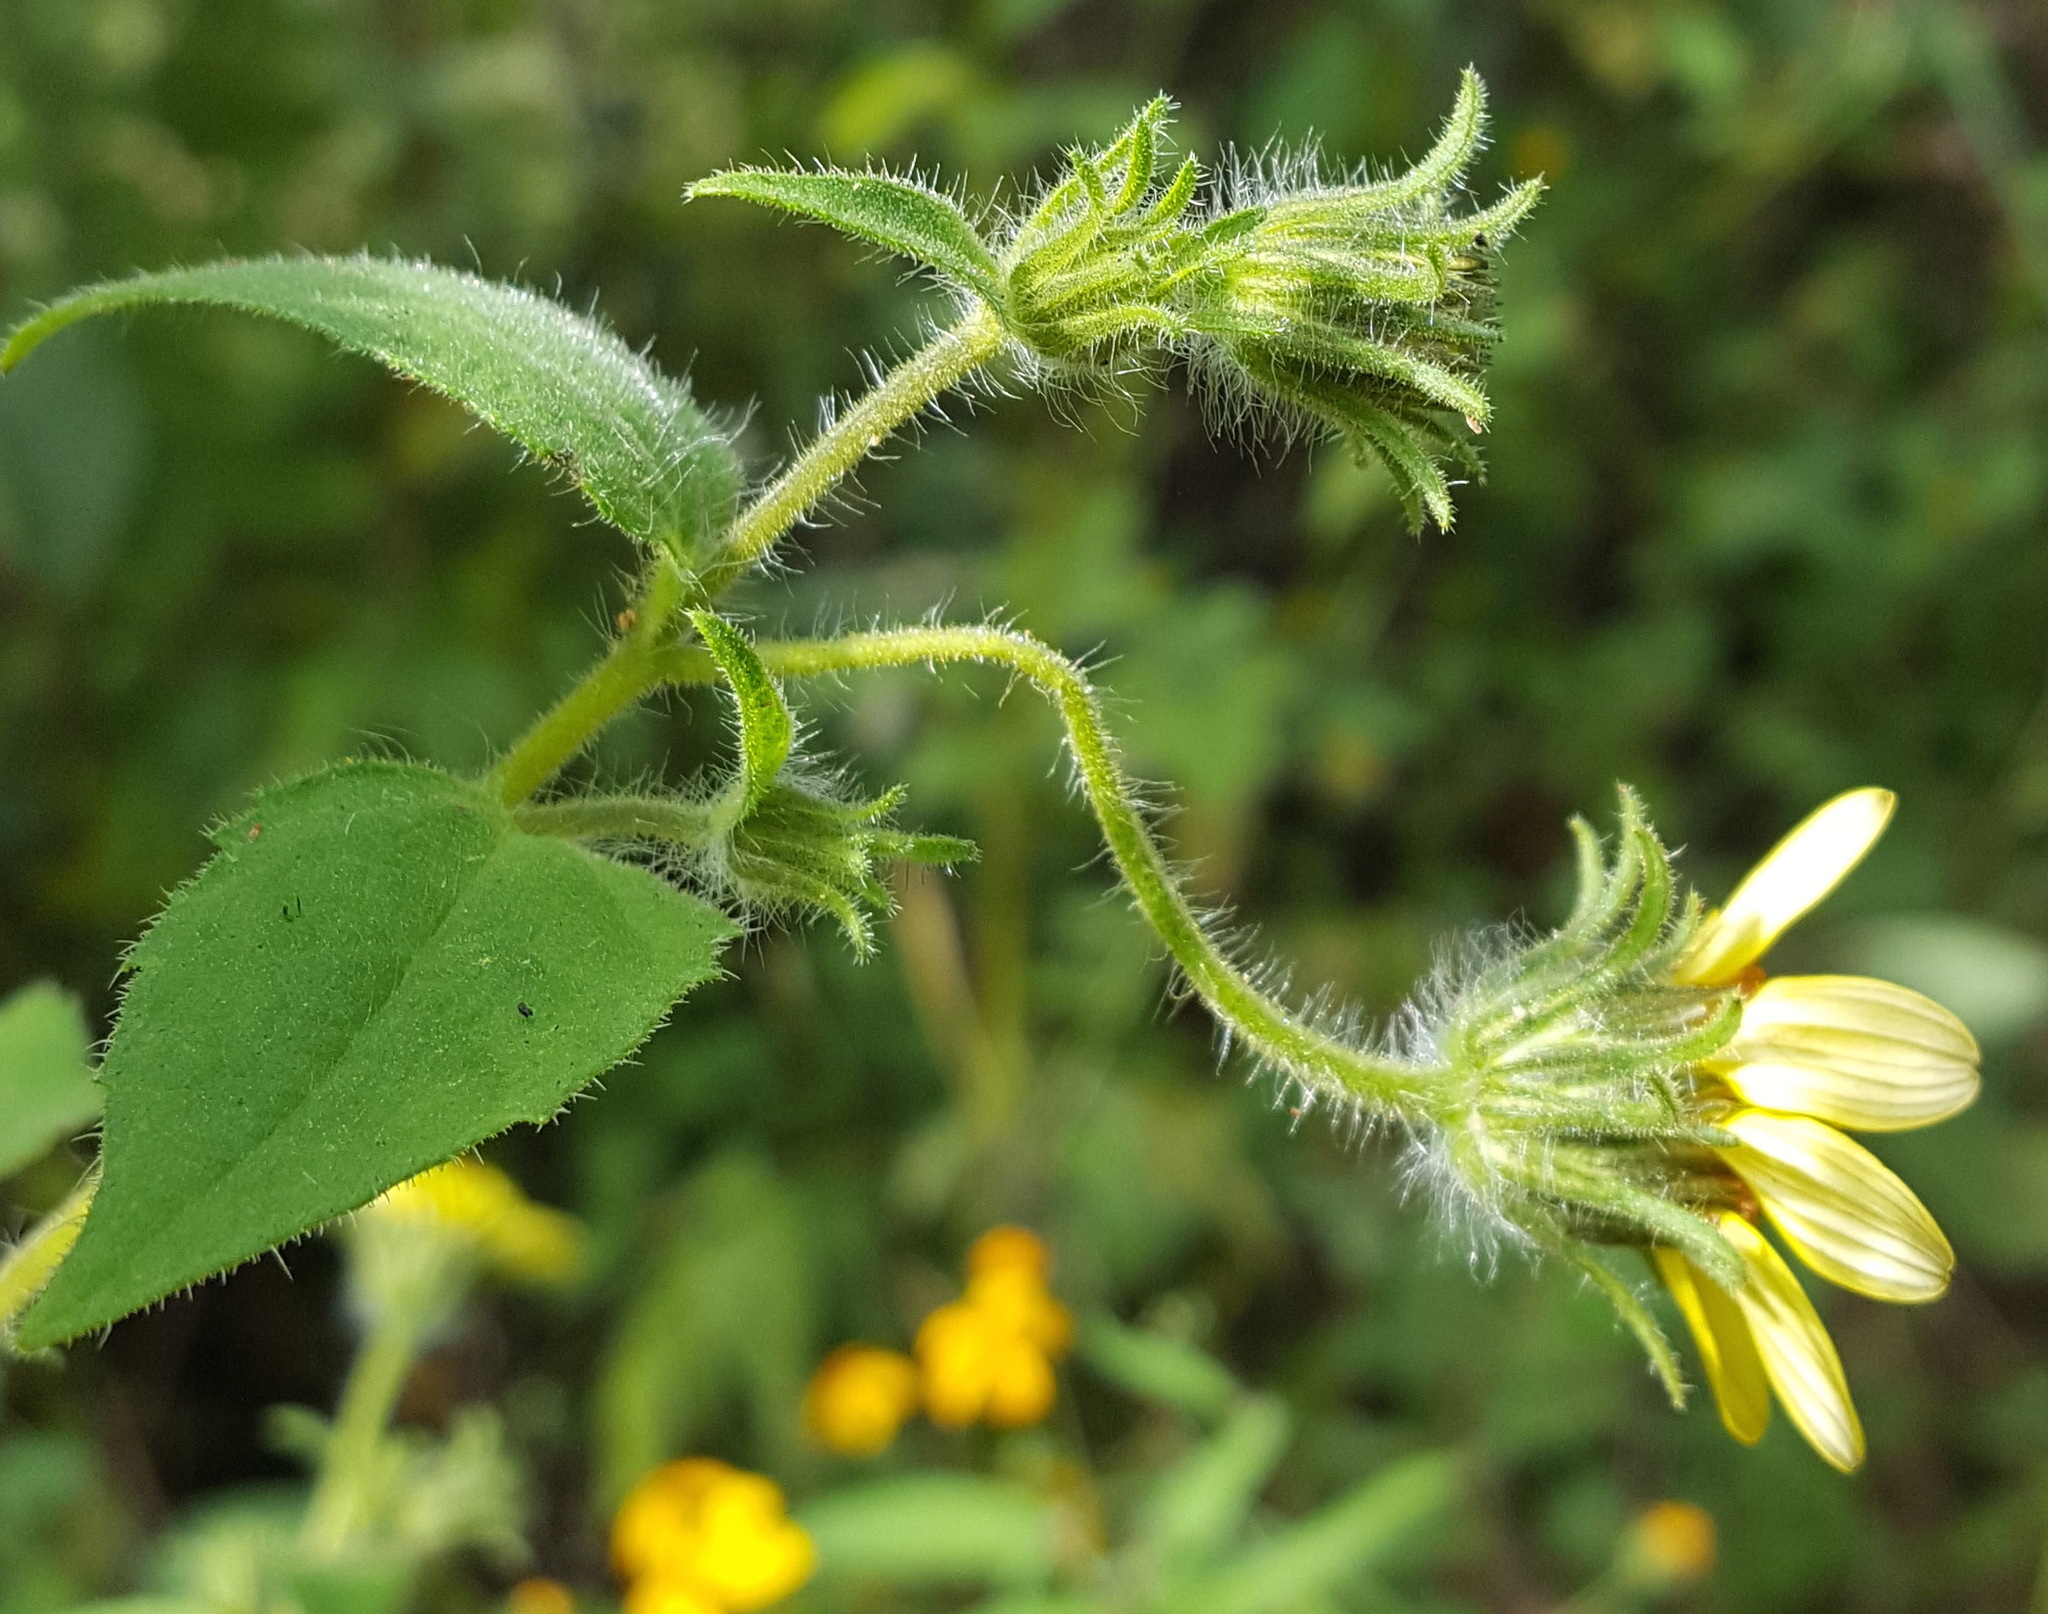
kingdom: Plantae
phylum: Tracheophyta
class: Magnoliopsida
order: Asterales
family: Asteraceae
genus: Simsia
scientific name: Simsia foetida
